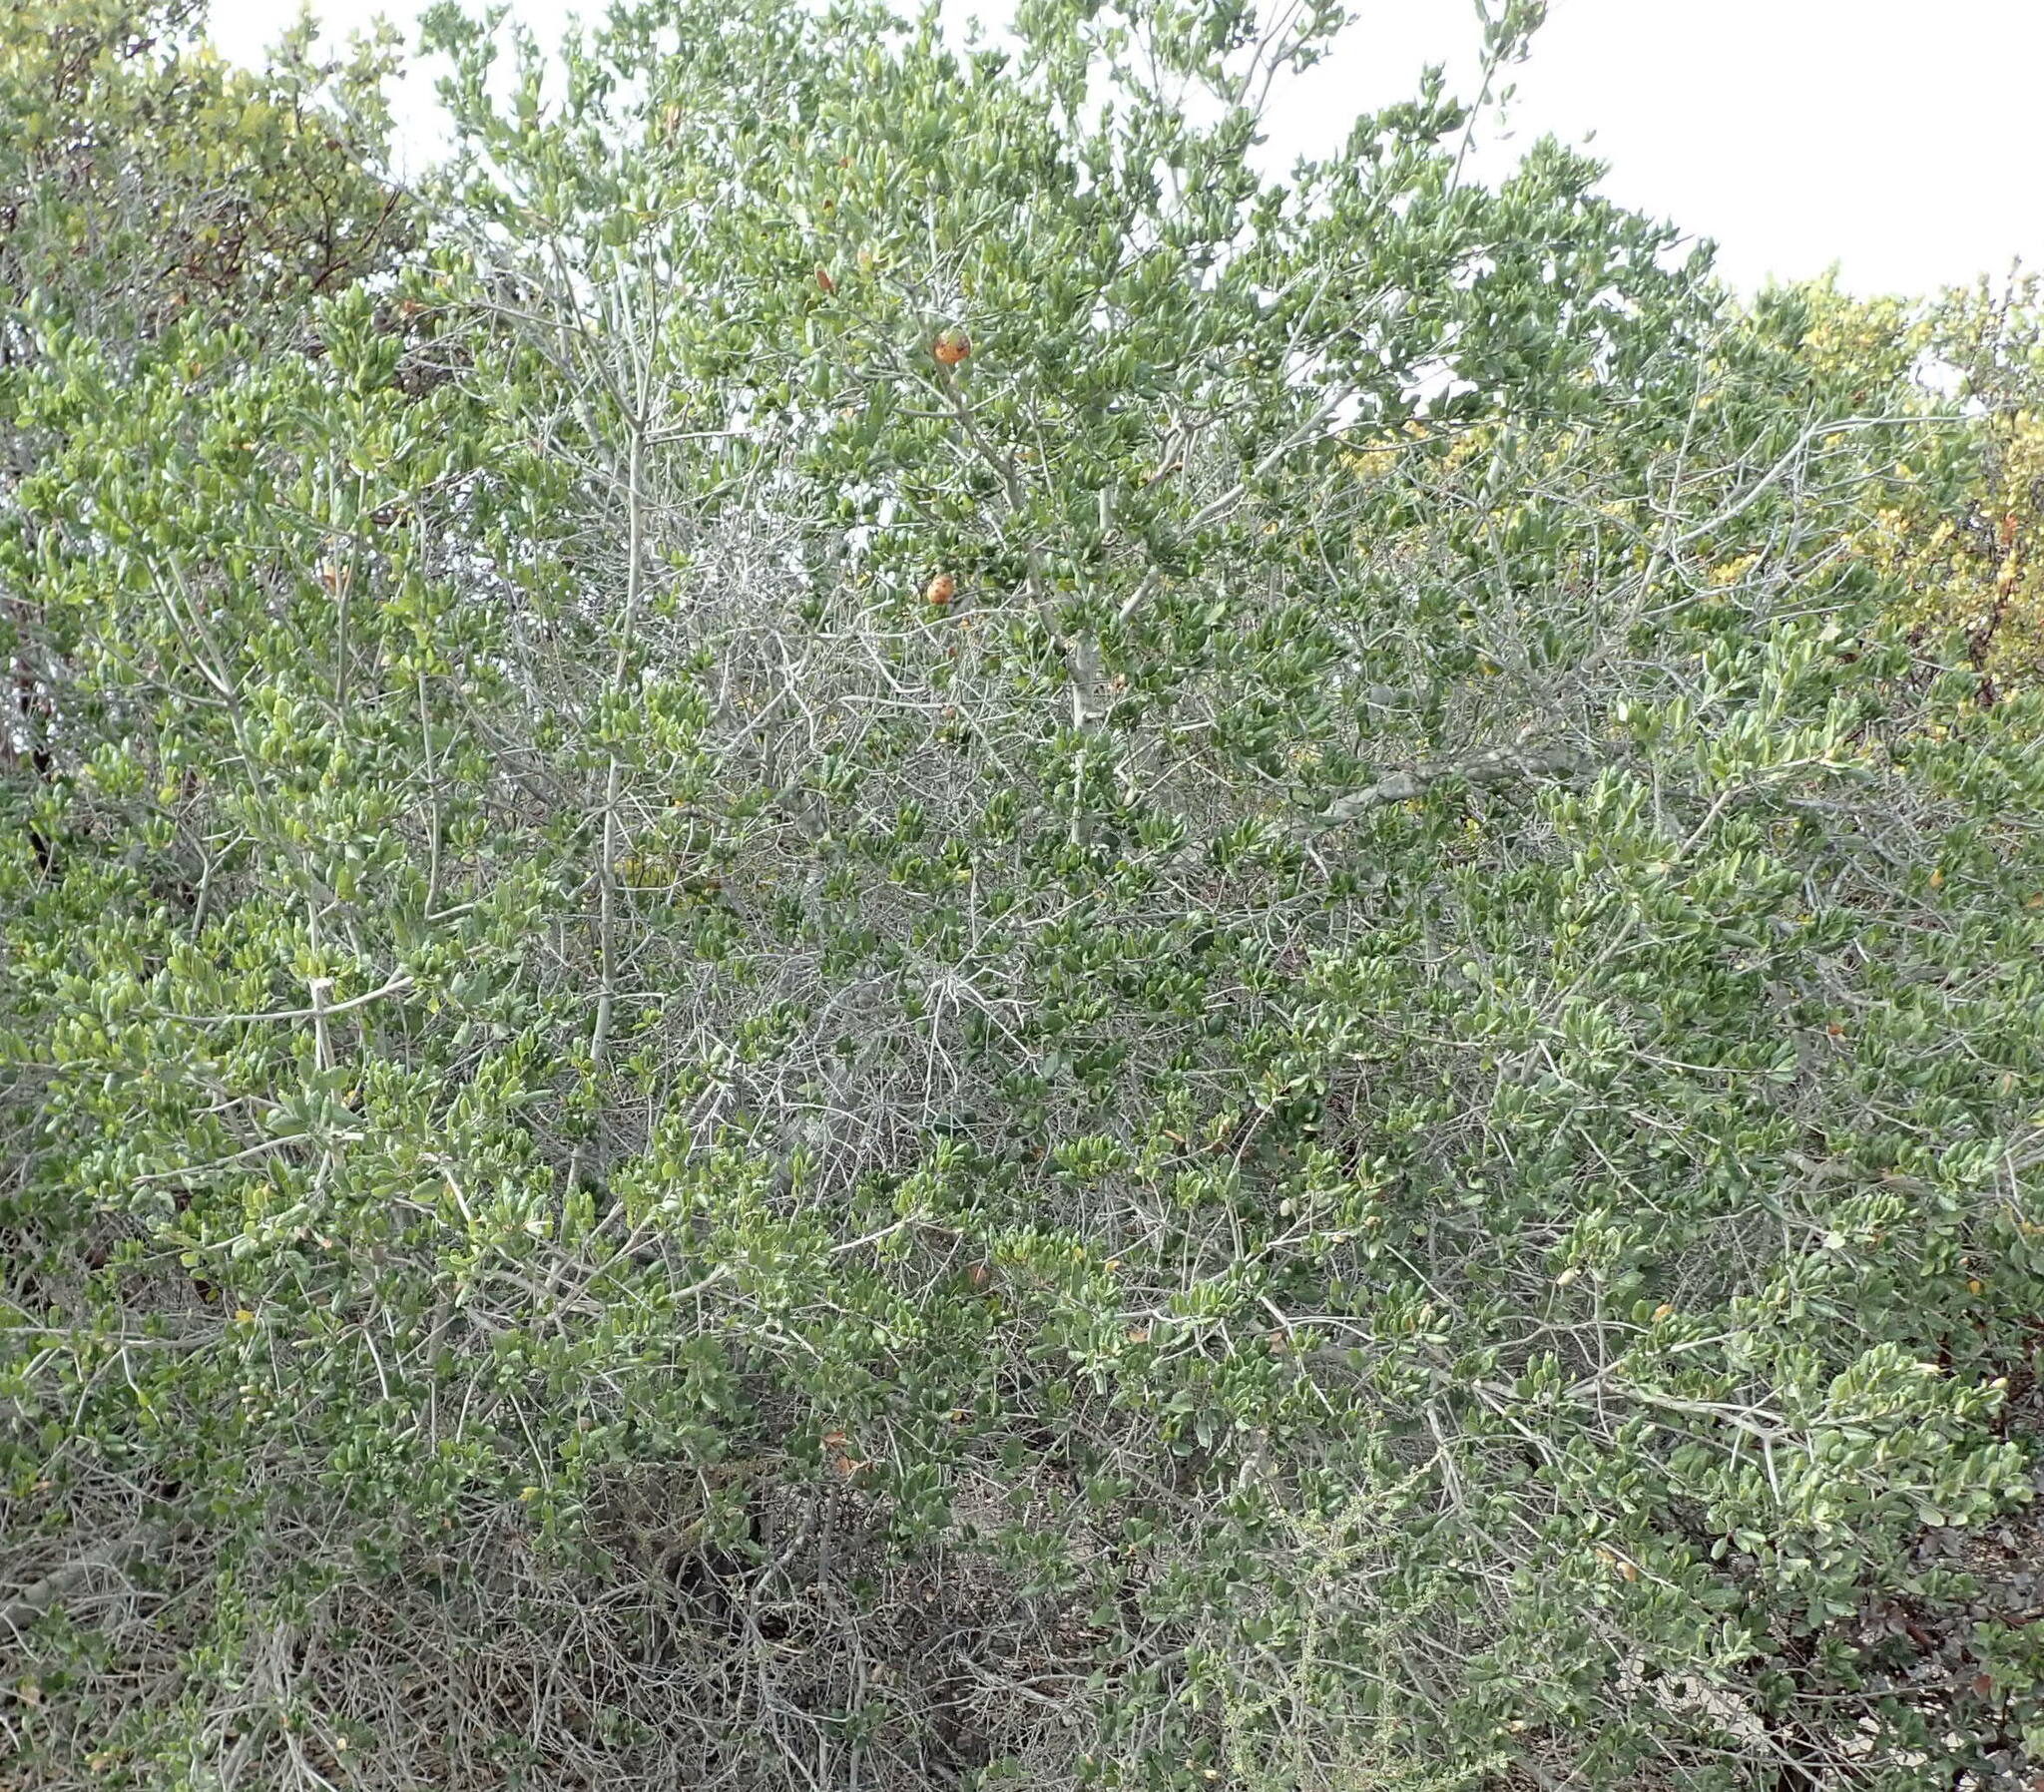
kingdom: Plantae
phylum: Tracheophyta
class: Magnoliopsida
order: Fagales
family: Fagaceae
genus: Quercus
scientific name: Quercus agrifolia
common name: California live oak
